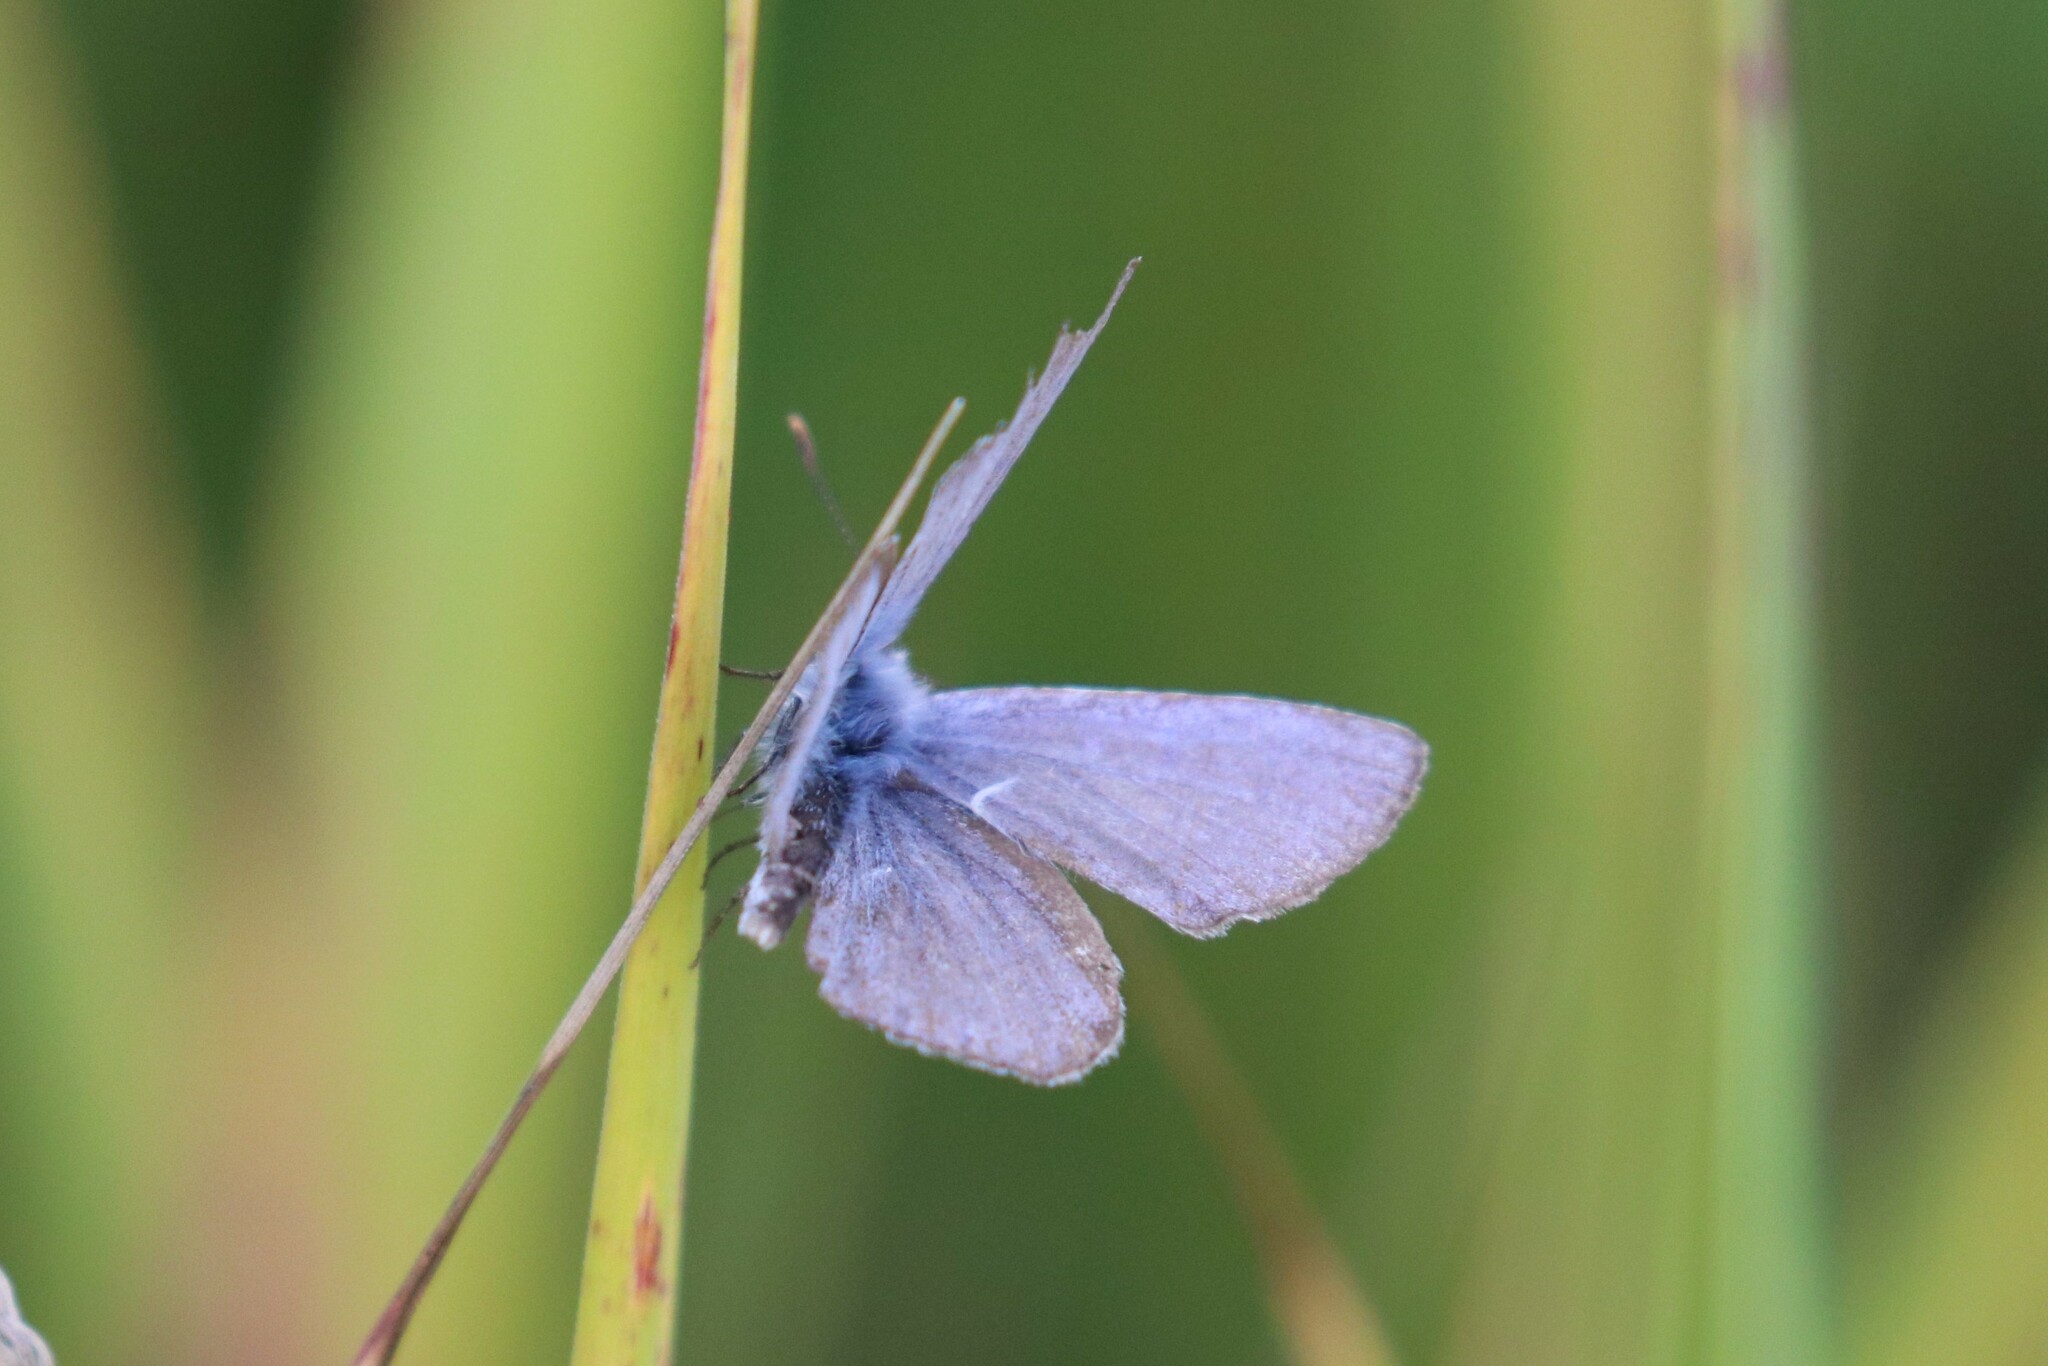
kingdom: Animalia
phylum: Arthropoda
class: Insecta
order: Lepidoptera
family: Lycaenidae
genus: Polyommatus
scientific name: Polyommatus icarus
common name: Common blue
